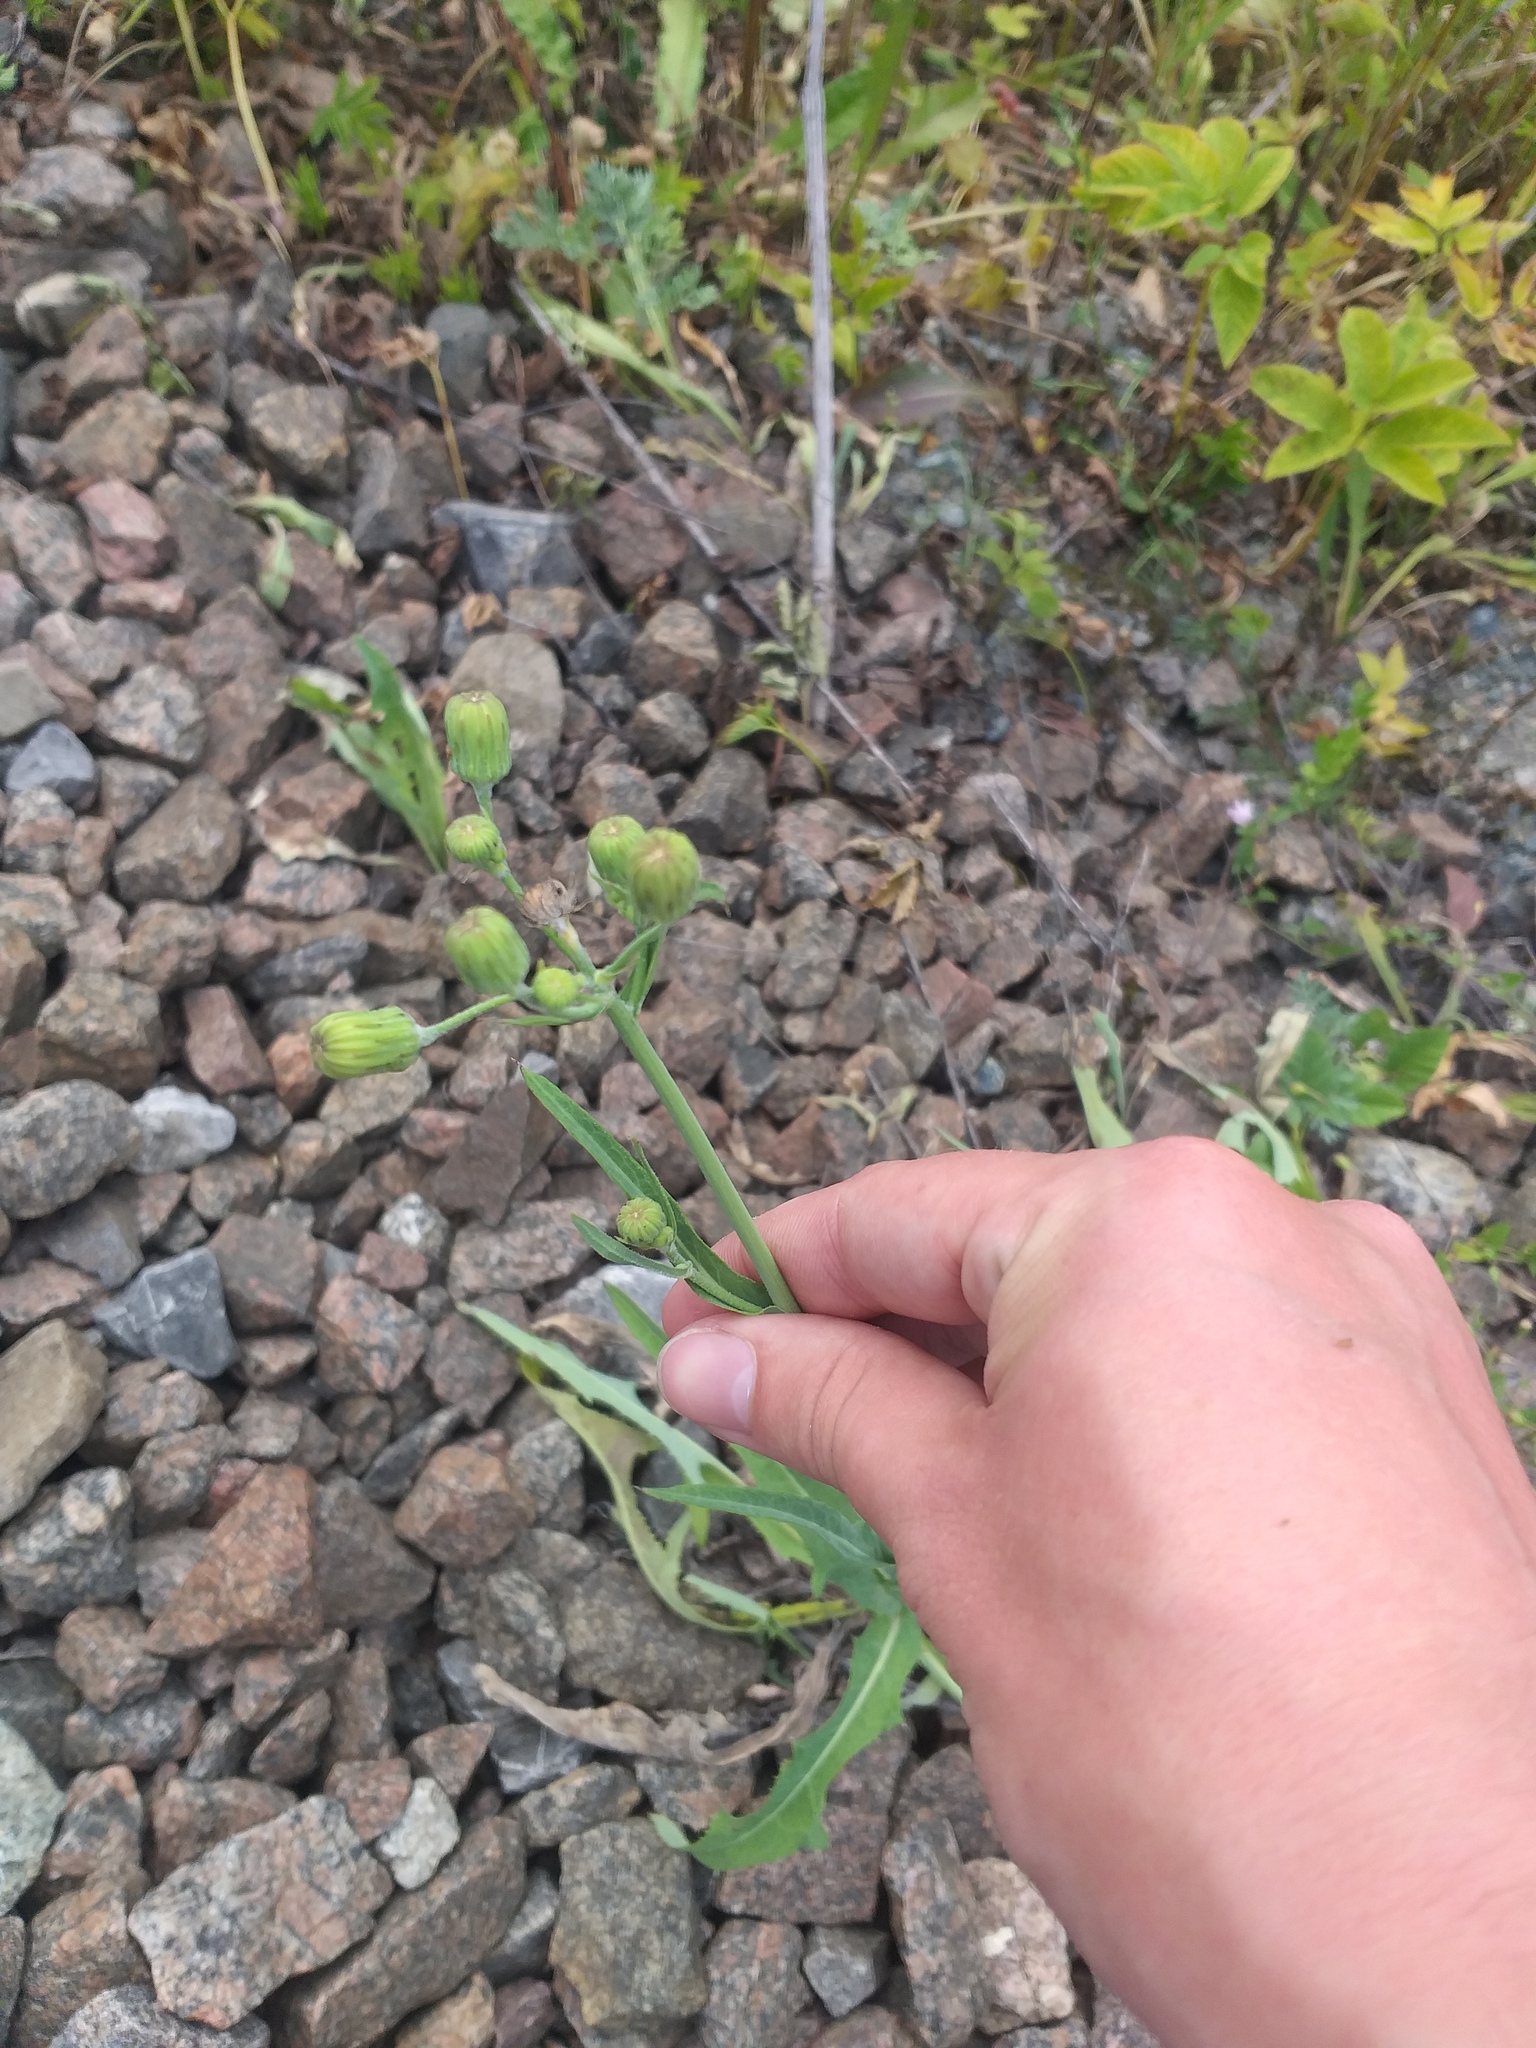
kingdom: Plantae
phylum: Tracheophyta
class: Magnoliopsida
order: Asterales
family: Asteraceae
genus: Sonchus
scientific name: Sonchus arvensis
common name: Perennial sow-thistle
